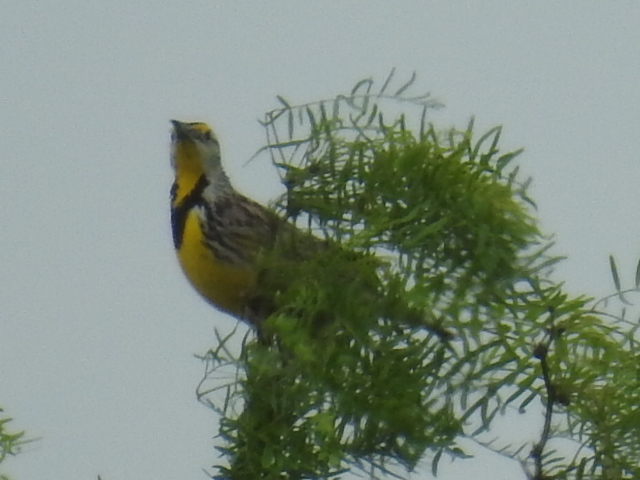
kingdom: Animalia
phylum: Chordata
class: Aves
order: Passeriformes
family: Icteridae
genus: Sturnella
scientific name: Sturnella magna
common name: Eastern meadowlark
